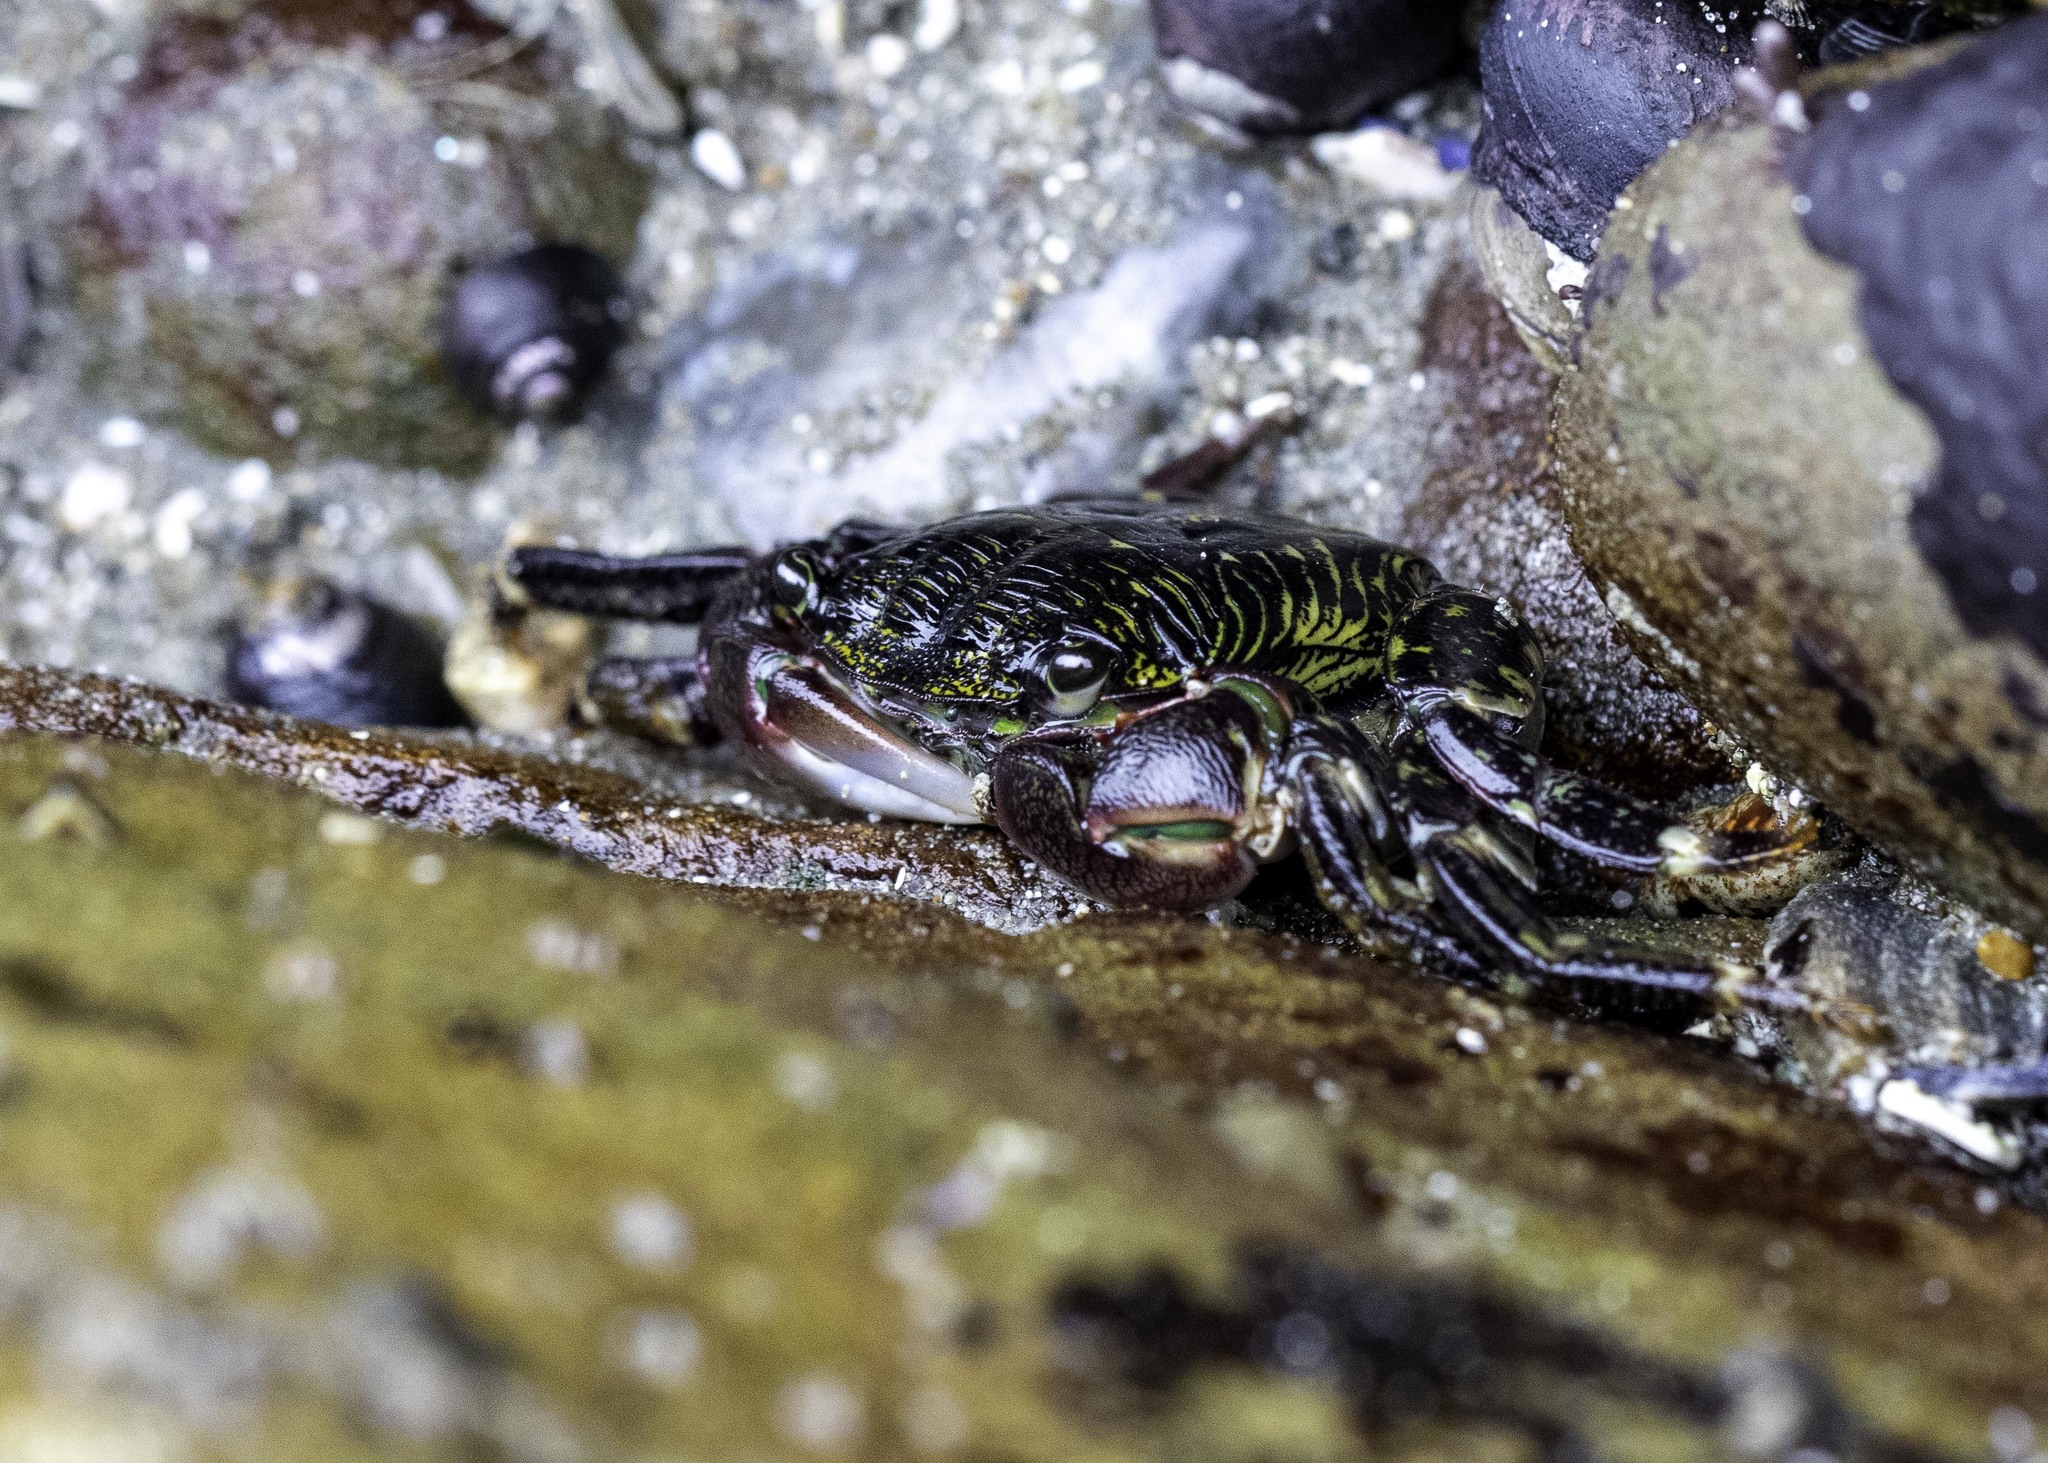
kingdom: Animalia
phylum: Arthropoda
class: Malacostraca
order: Decapoda
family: Grapsidae
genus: Pachygrapsus
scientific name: Pachygrapsus crassipes
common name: Striped shore crab
